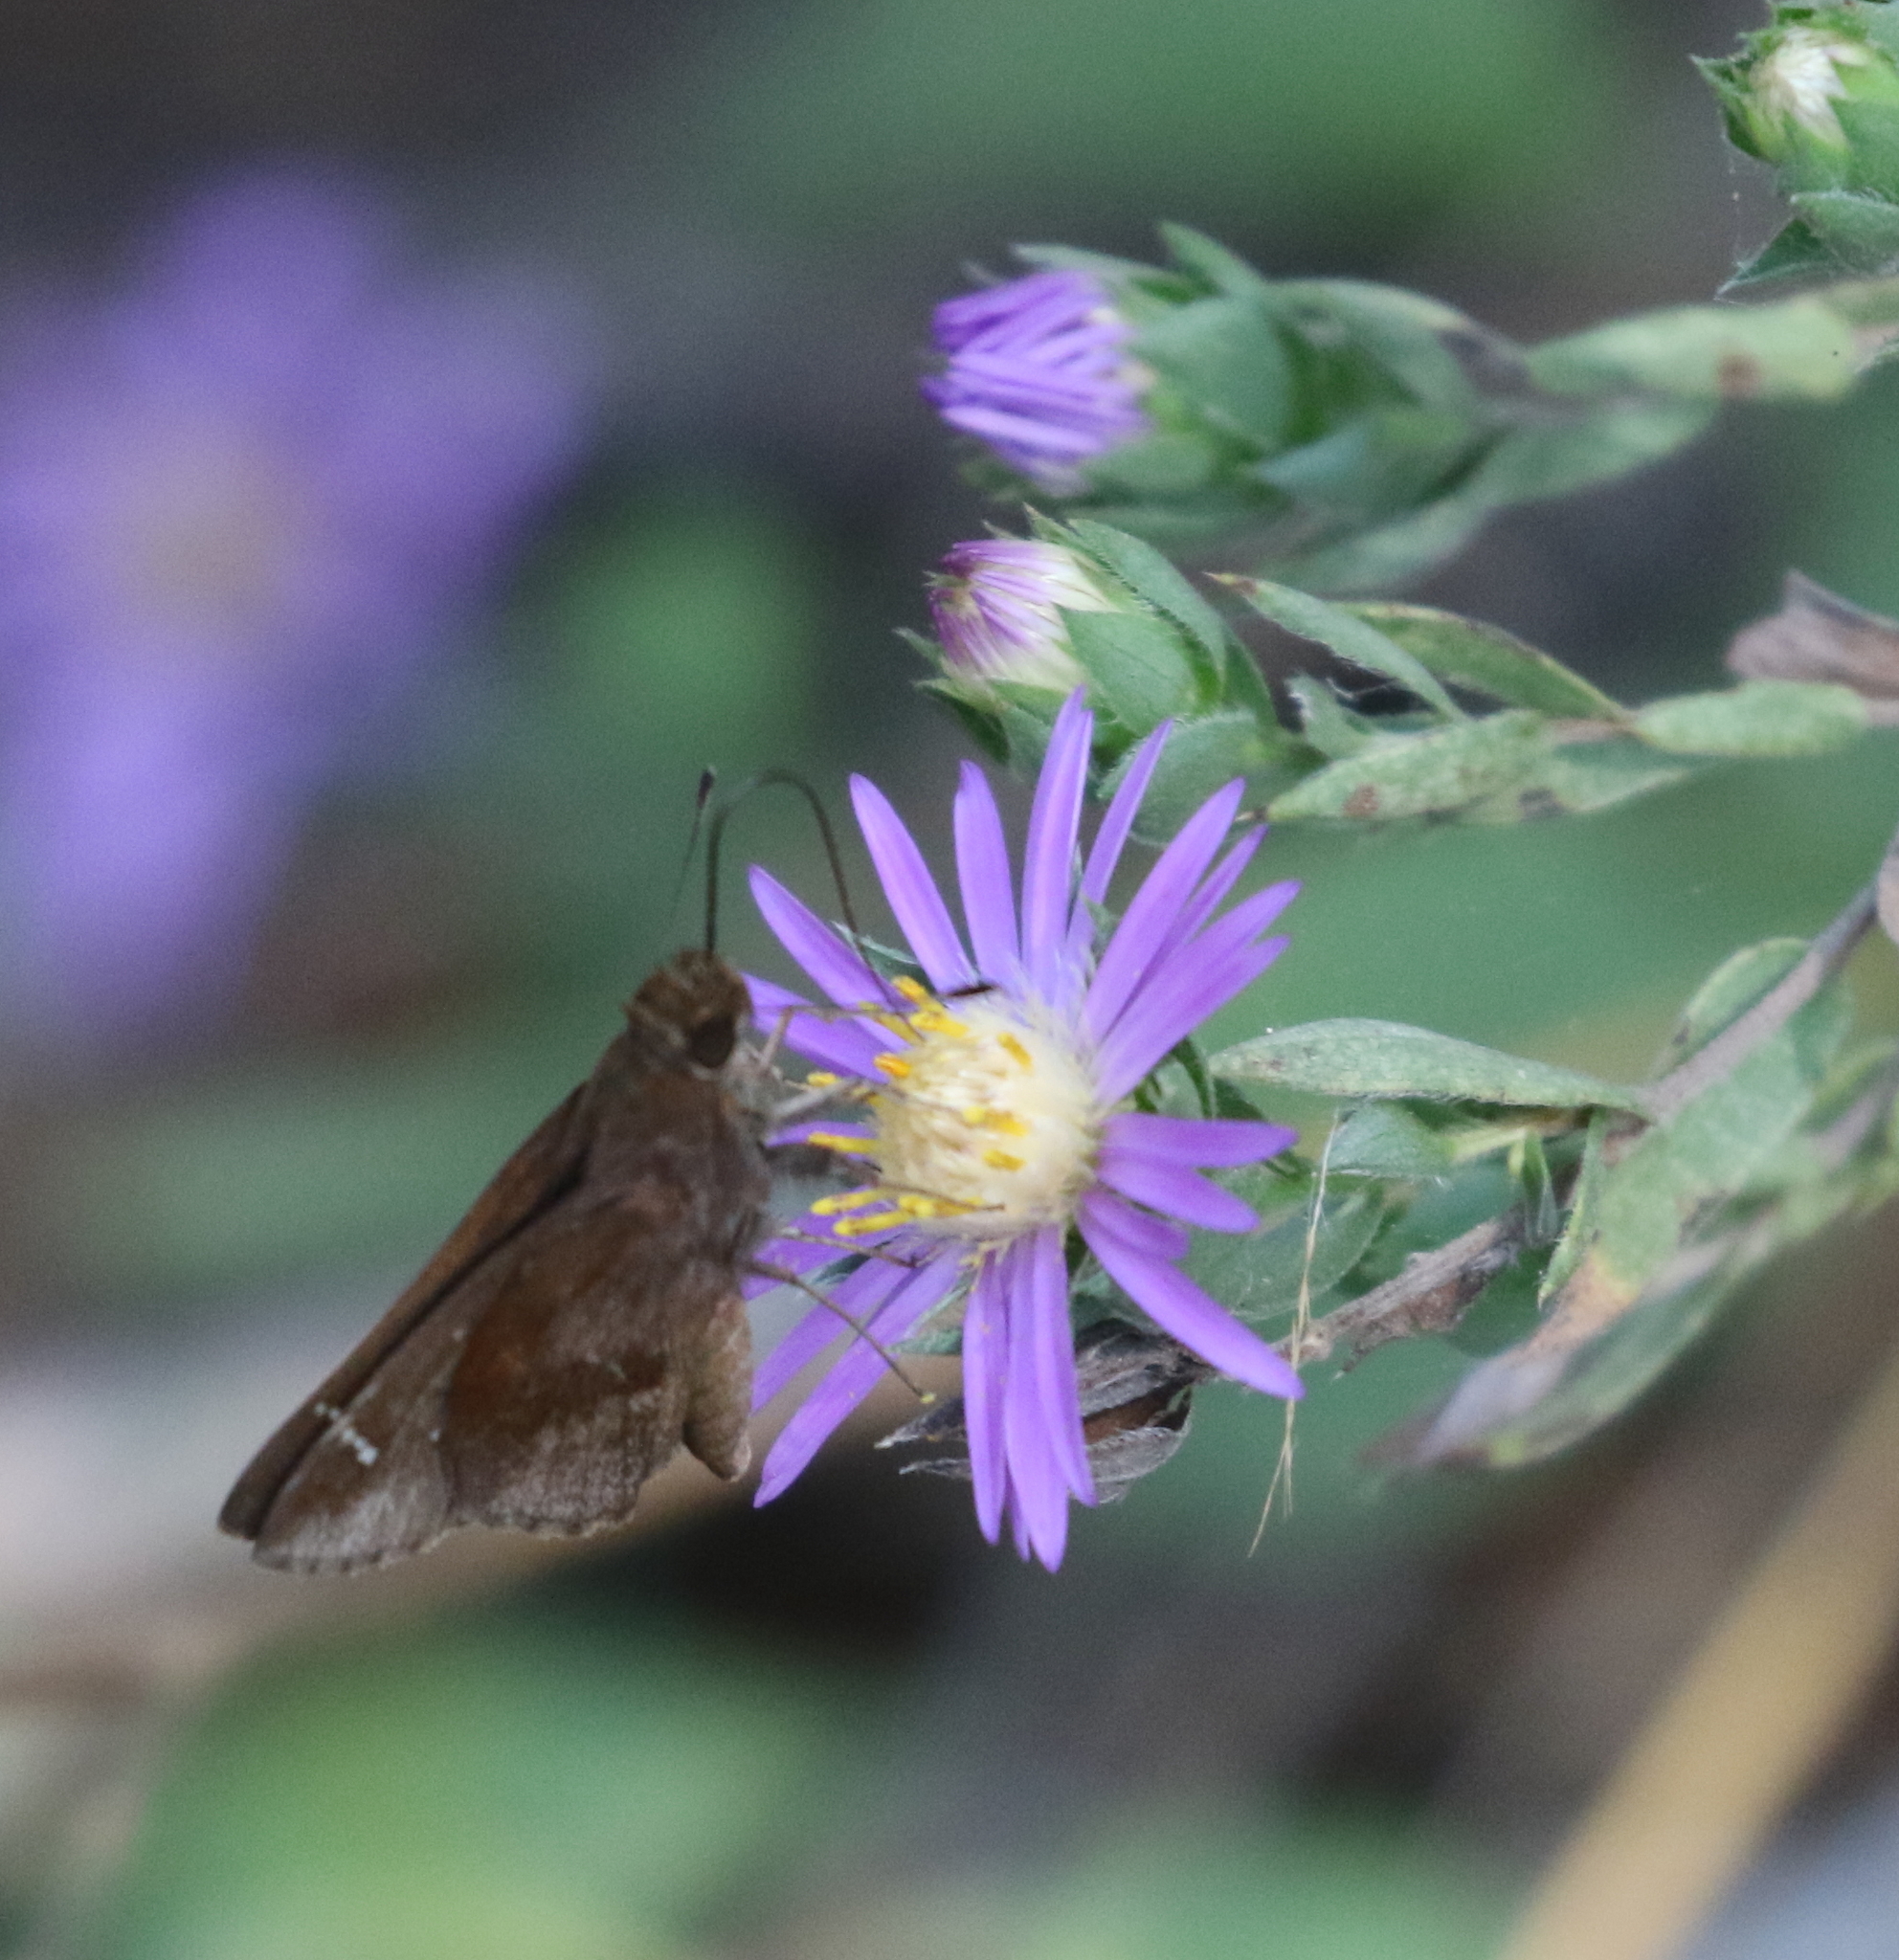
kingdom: Animalia
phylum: Arthropoda
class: Insecta
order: Lepidoptera
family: Hesperiidae
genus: Lerema
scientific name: Lerema accius
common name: Clouded skipper
